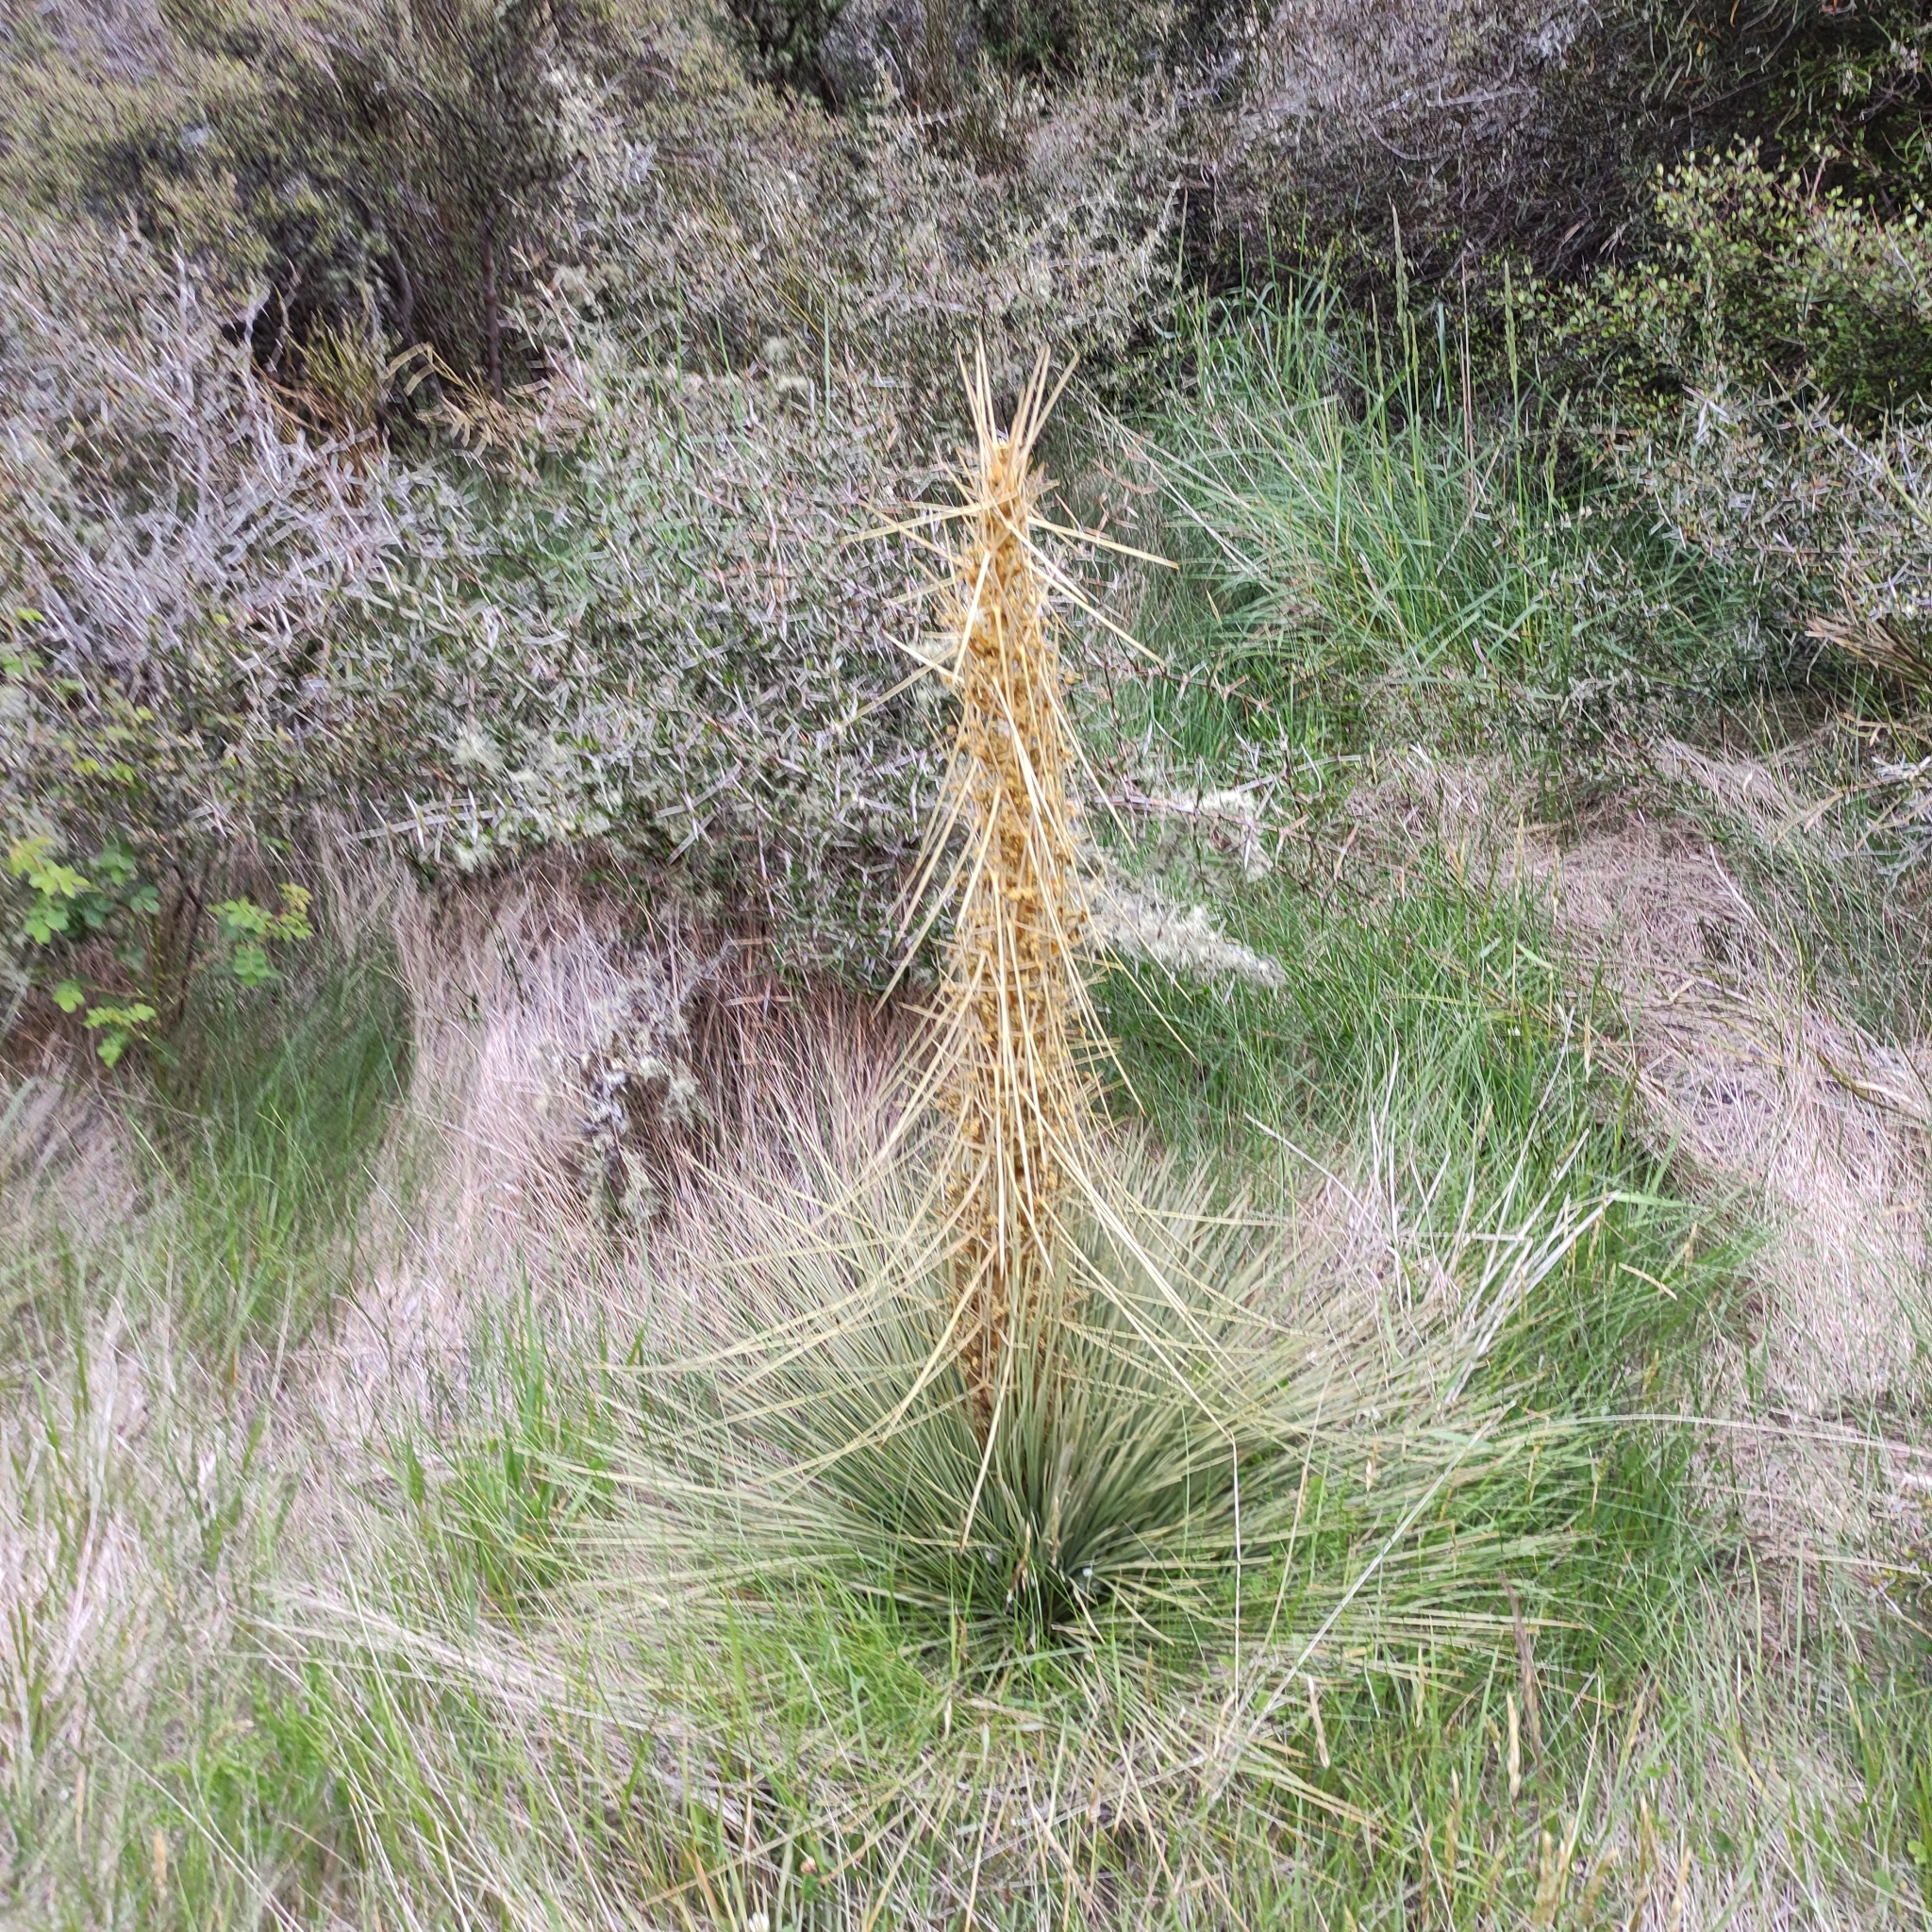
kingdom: Plantae
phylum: Tracheophyta
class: Magnoliopsida
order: Apiales
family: Apiaceae
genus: Aciphylla
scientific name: Aciphylla subflabellata
